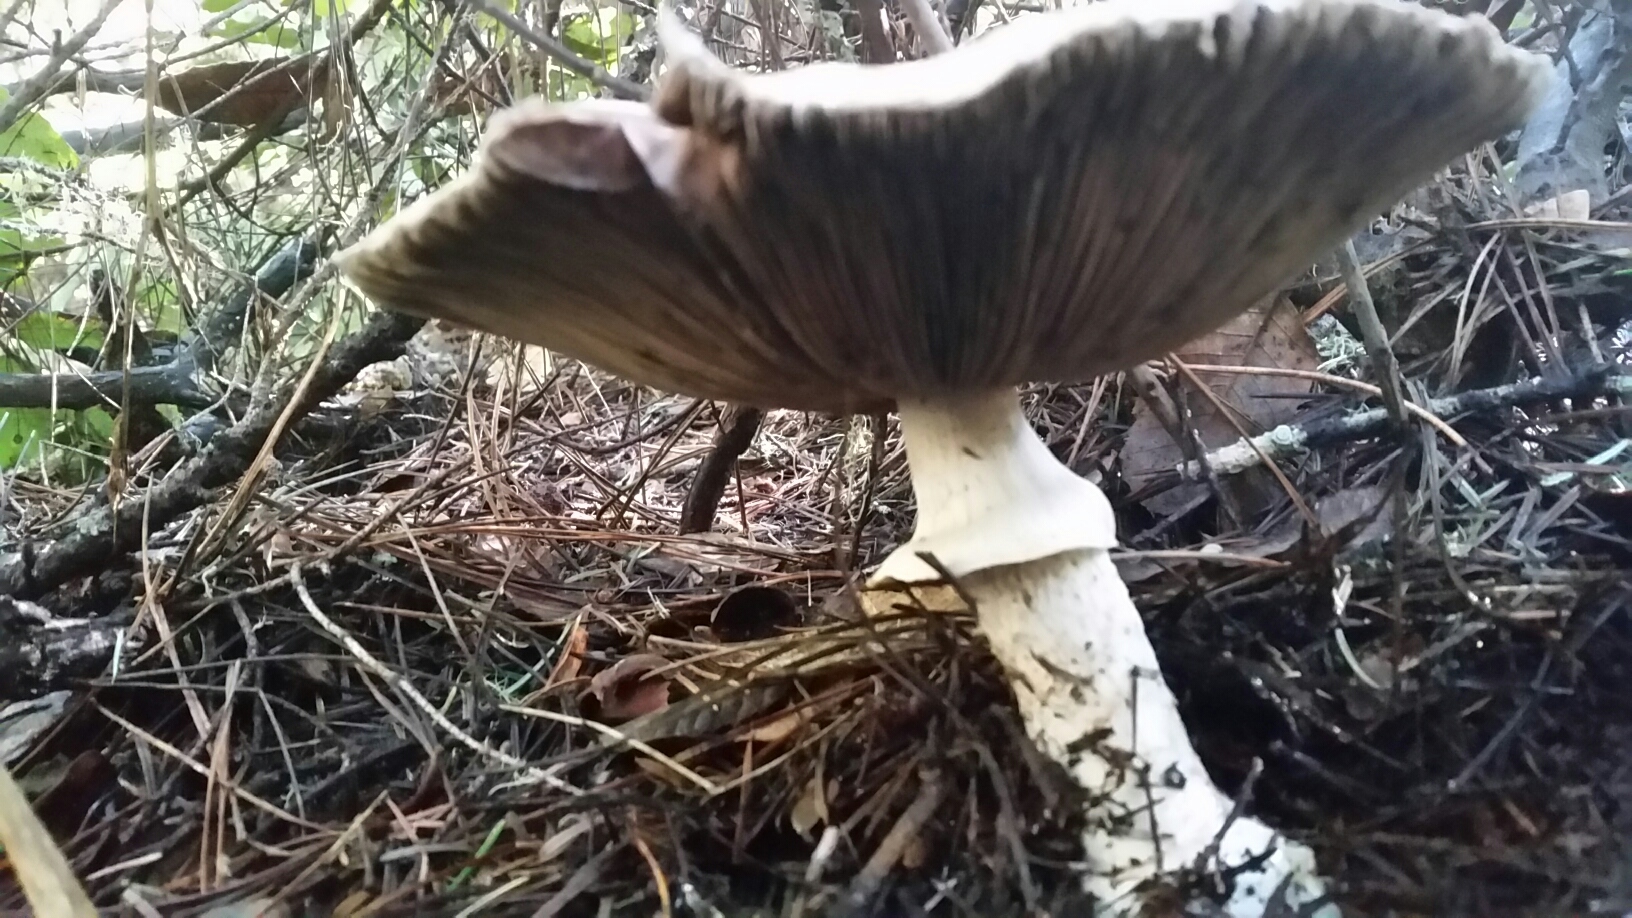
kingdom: Fungi
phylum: Basidiomycota
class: Agaricomycetes
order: Agaricales
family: Agaricaceae
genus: Agaricus
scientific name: Agaricus subrutilescens
